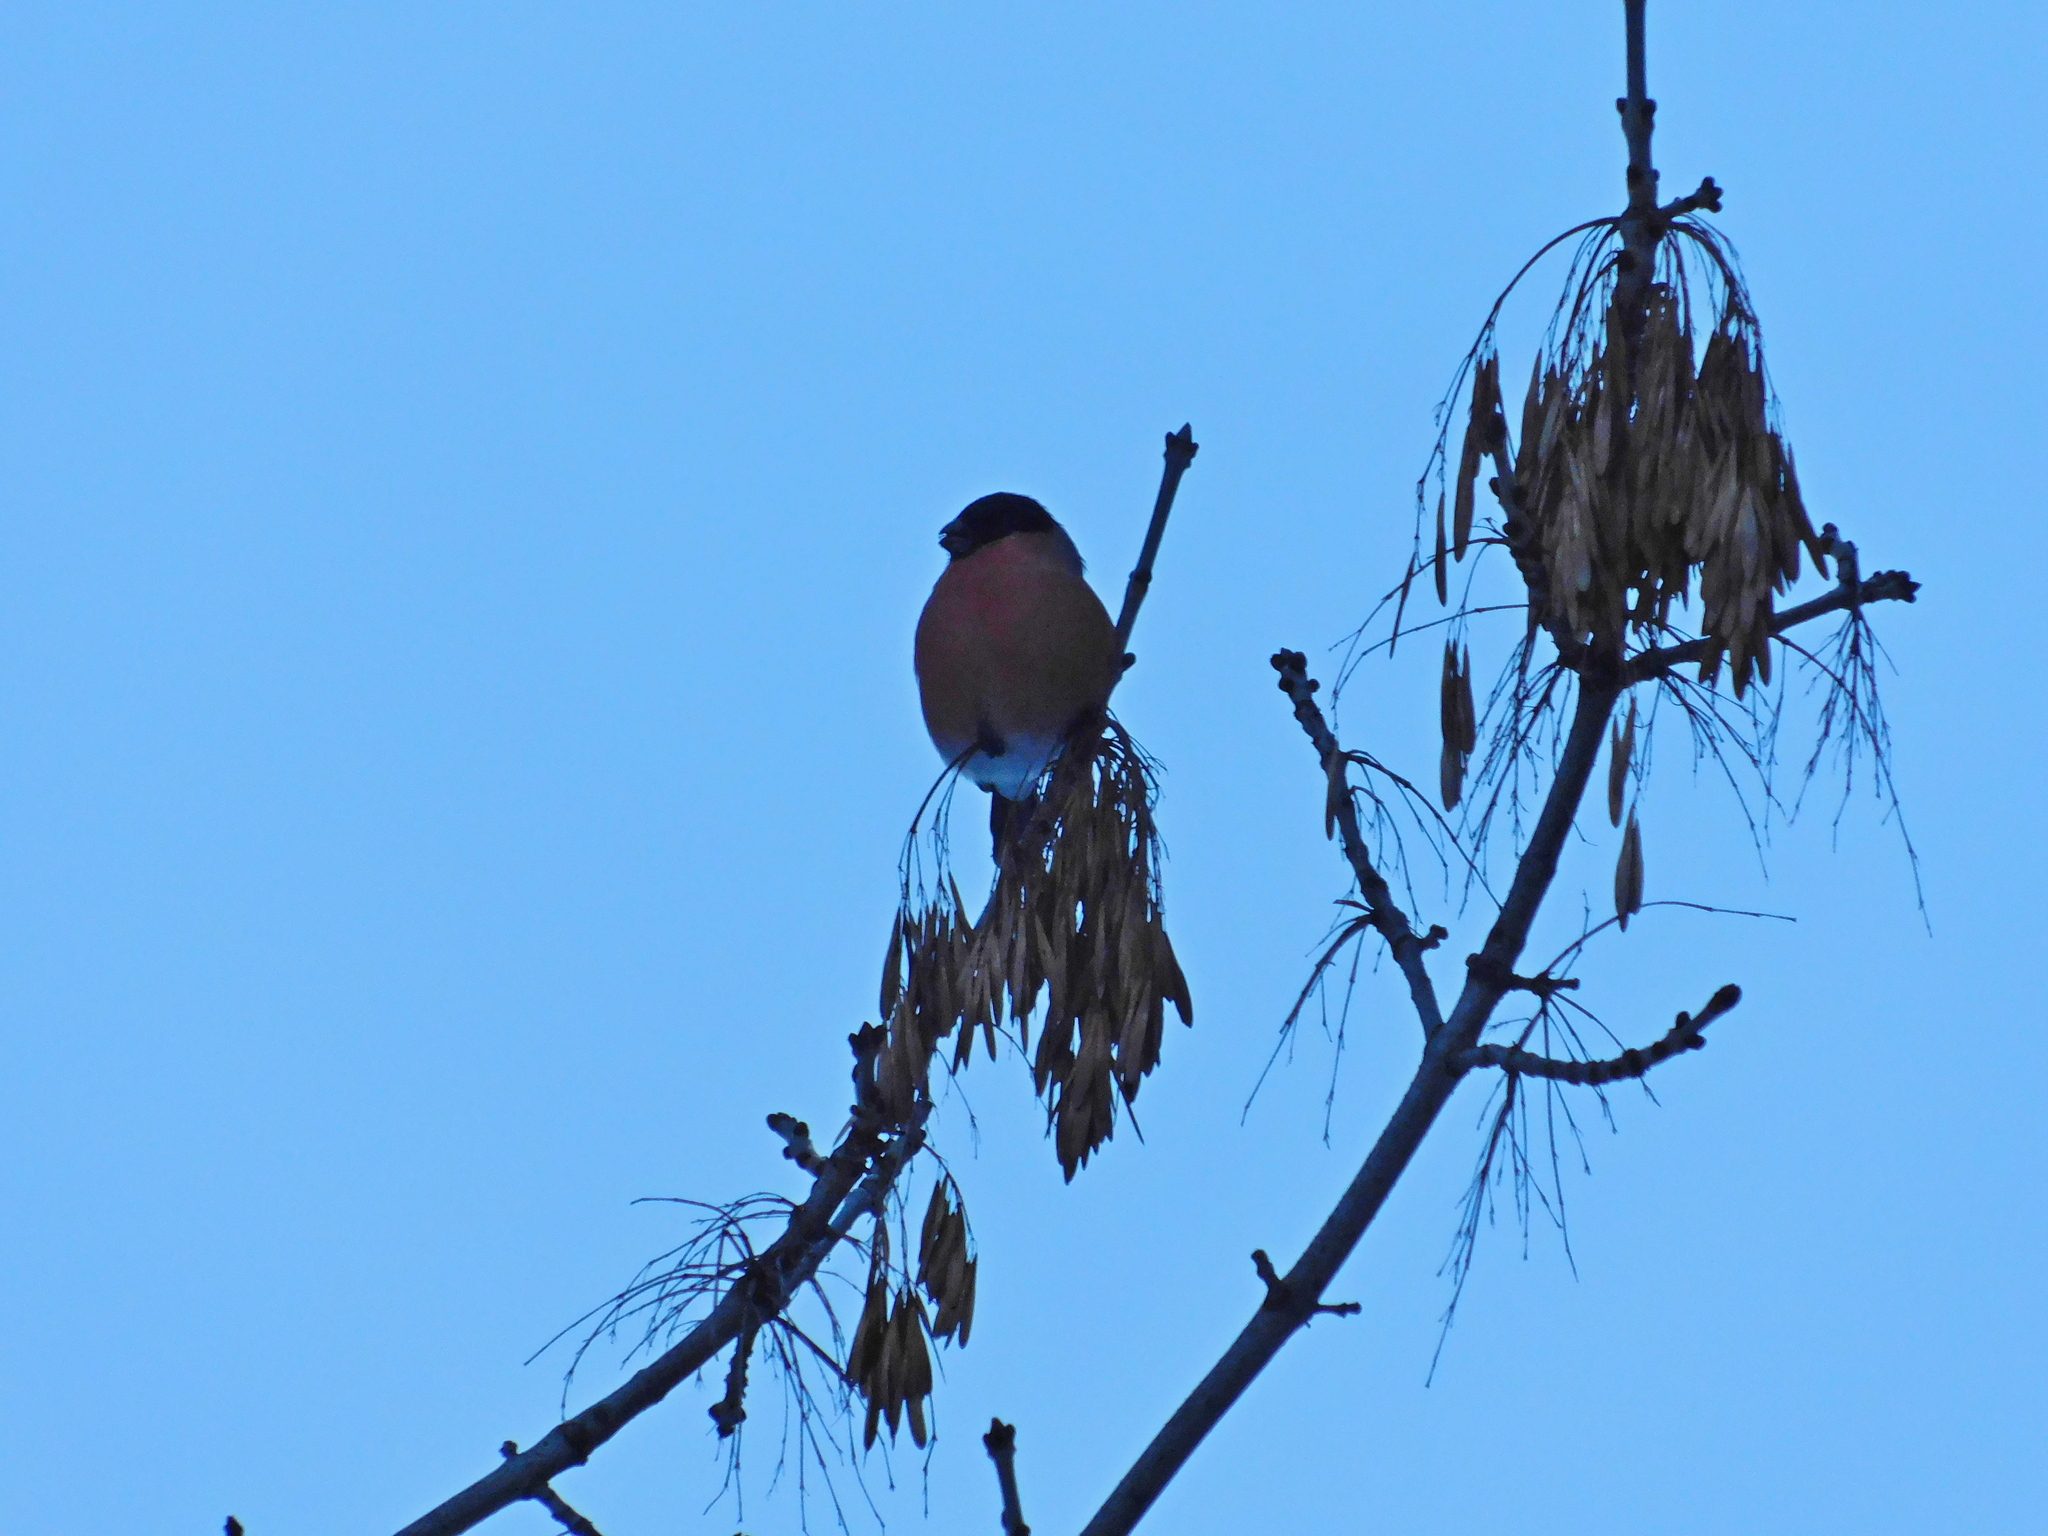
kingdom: Animalia
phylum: Chordata
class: Aves
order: Passeriformes
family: Fringillidae
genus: Pyrrhula
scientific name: Pyrrhula pyrrhula
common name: Eurasian bullfinch
